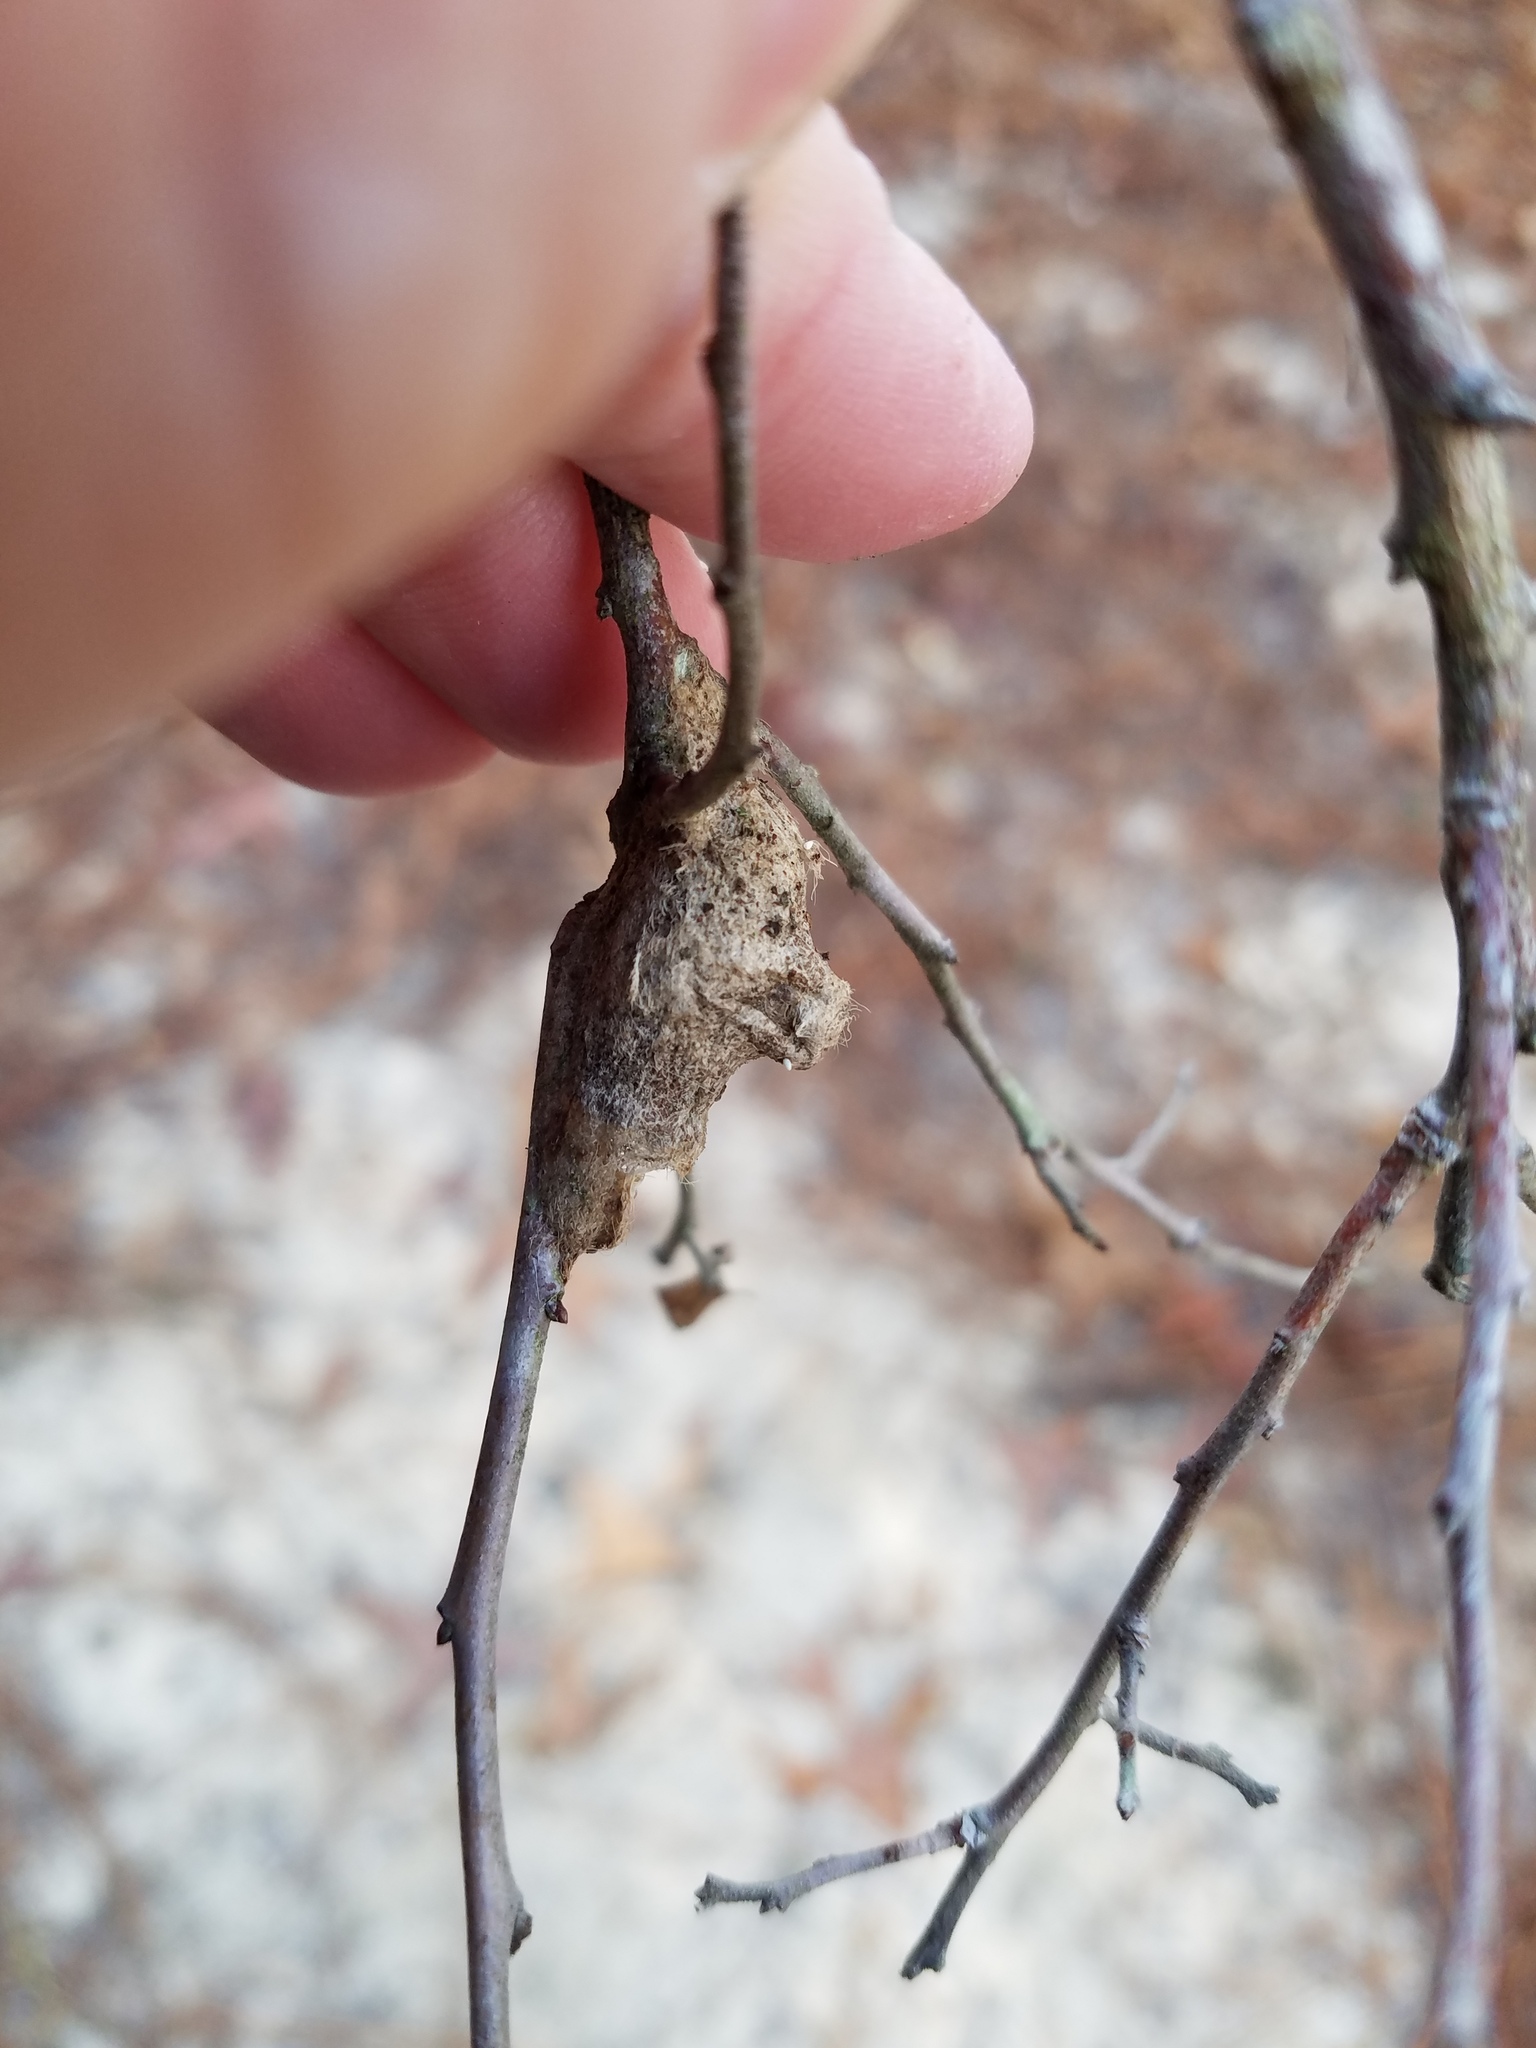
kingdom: Animalia
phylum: Arthropoda
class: Insecta
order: Lepidoptera
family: Megalopygidae
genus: Megalopyge
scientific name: Megalopyge
